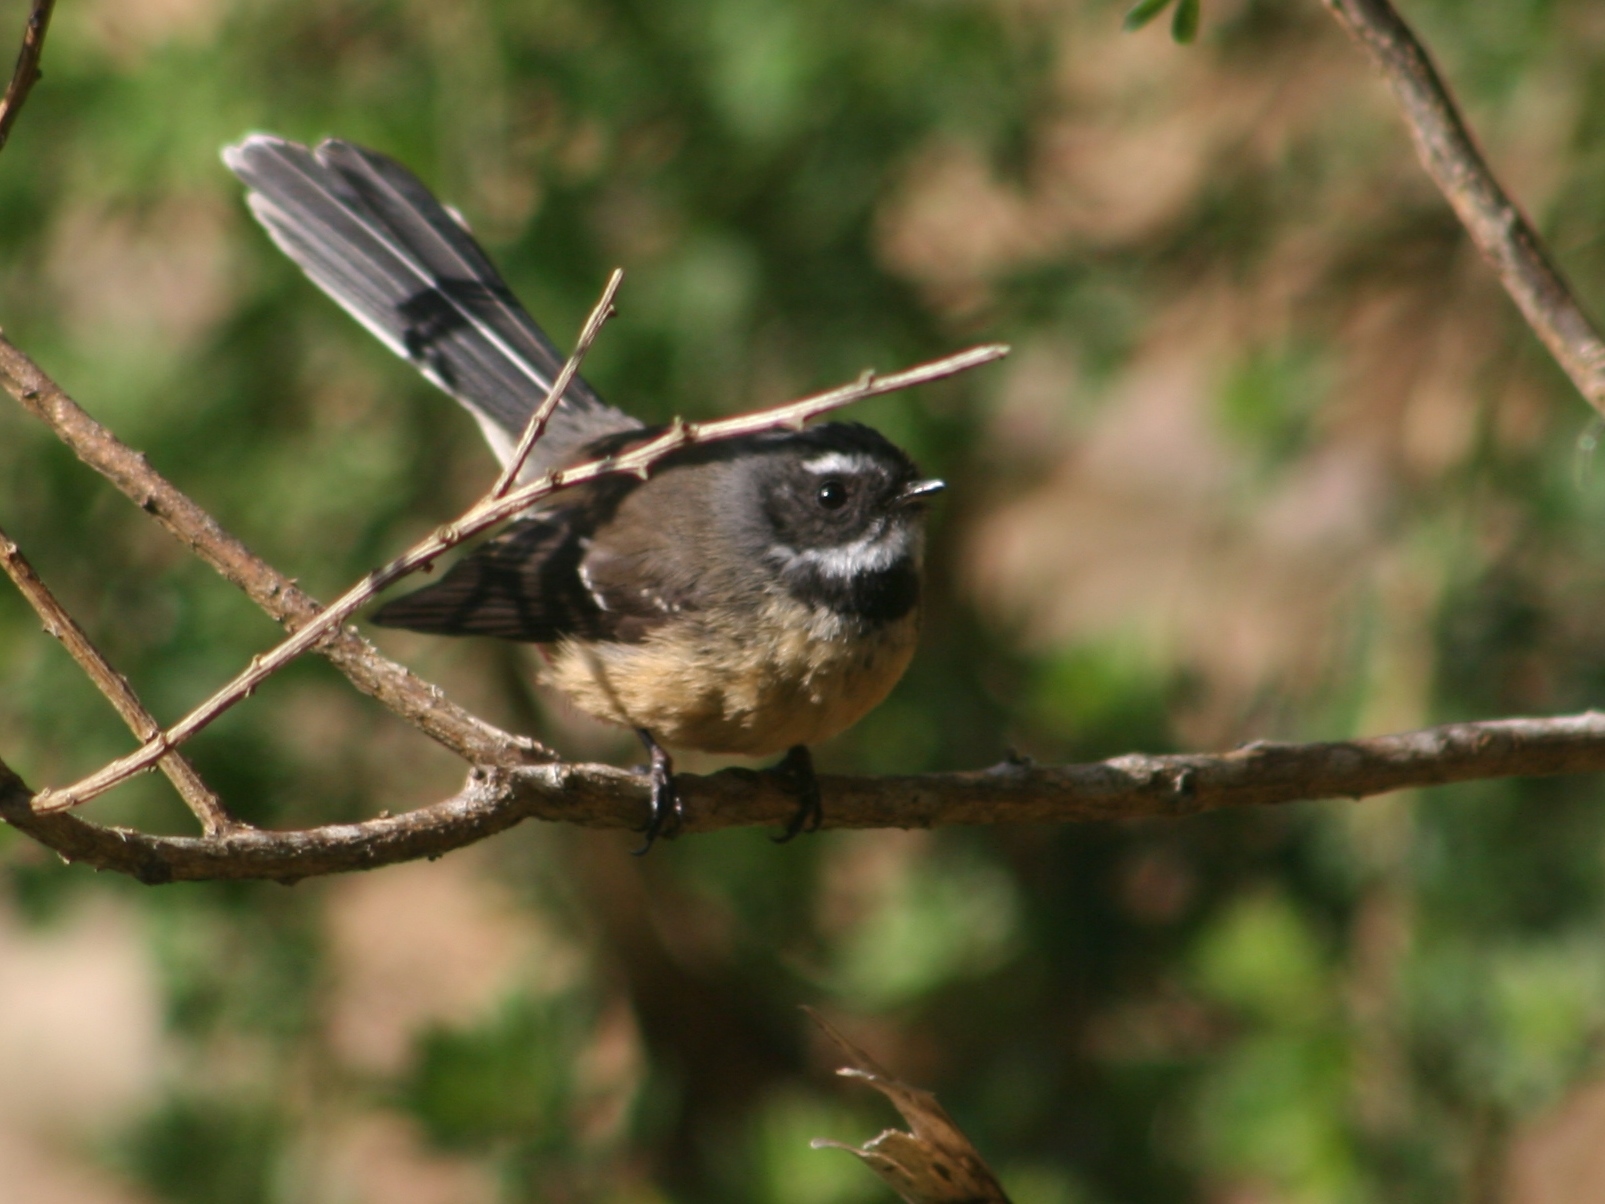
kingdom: Animalia
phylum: Chordata
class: Aves
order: Passeriformes
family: Rhipiduridae
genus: Rhipidura
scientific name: Rhipidura fuliginosa
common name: New zealand fantail
